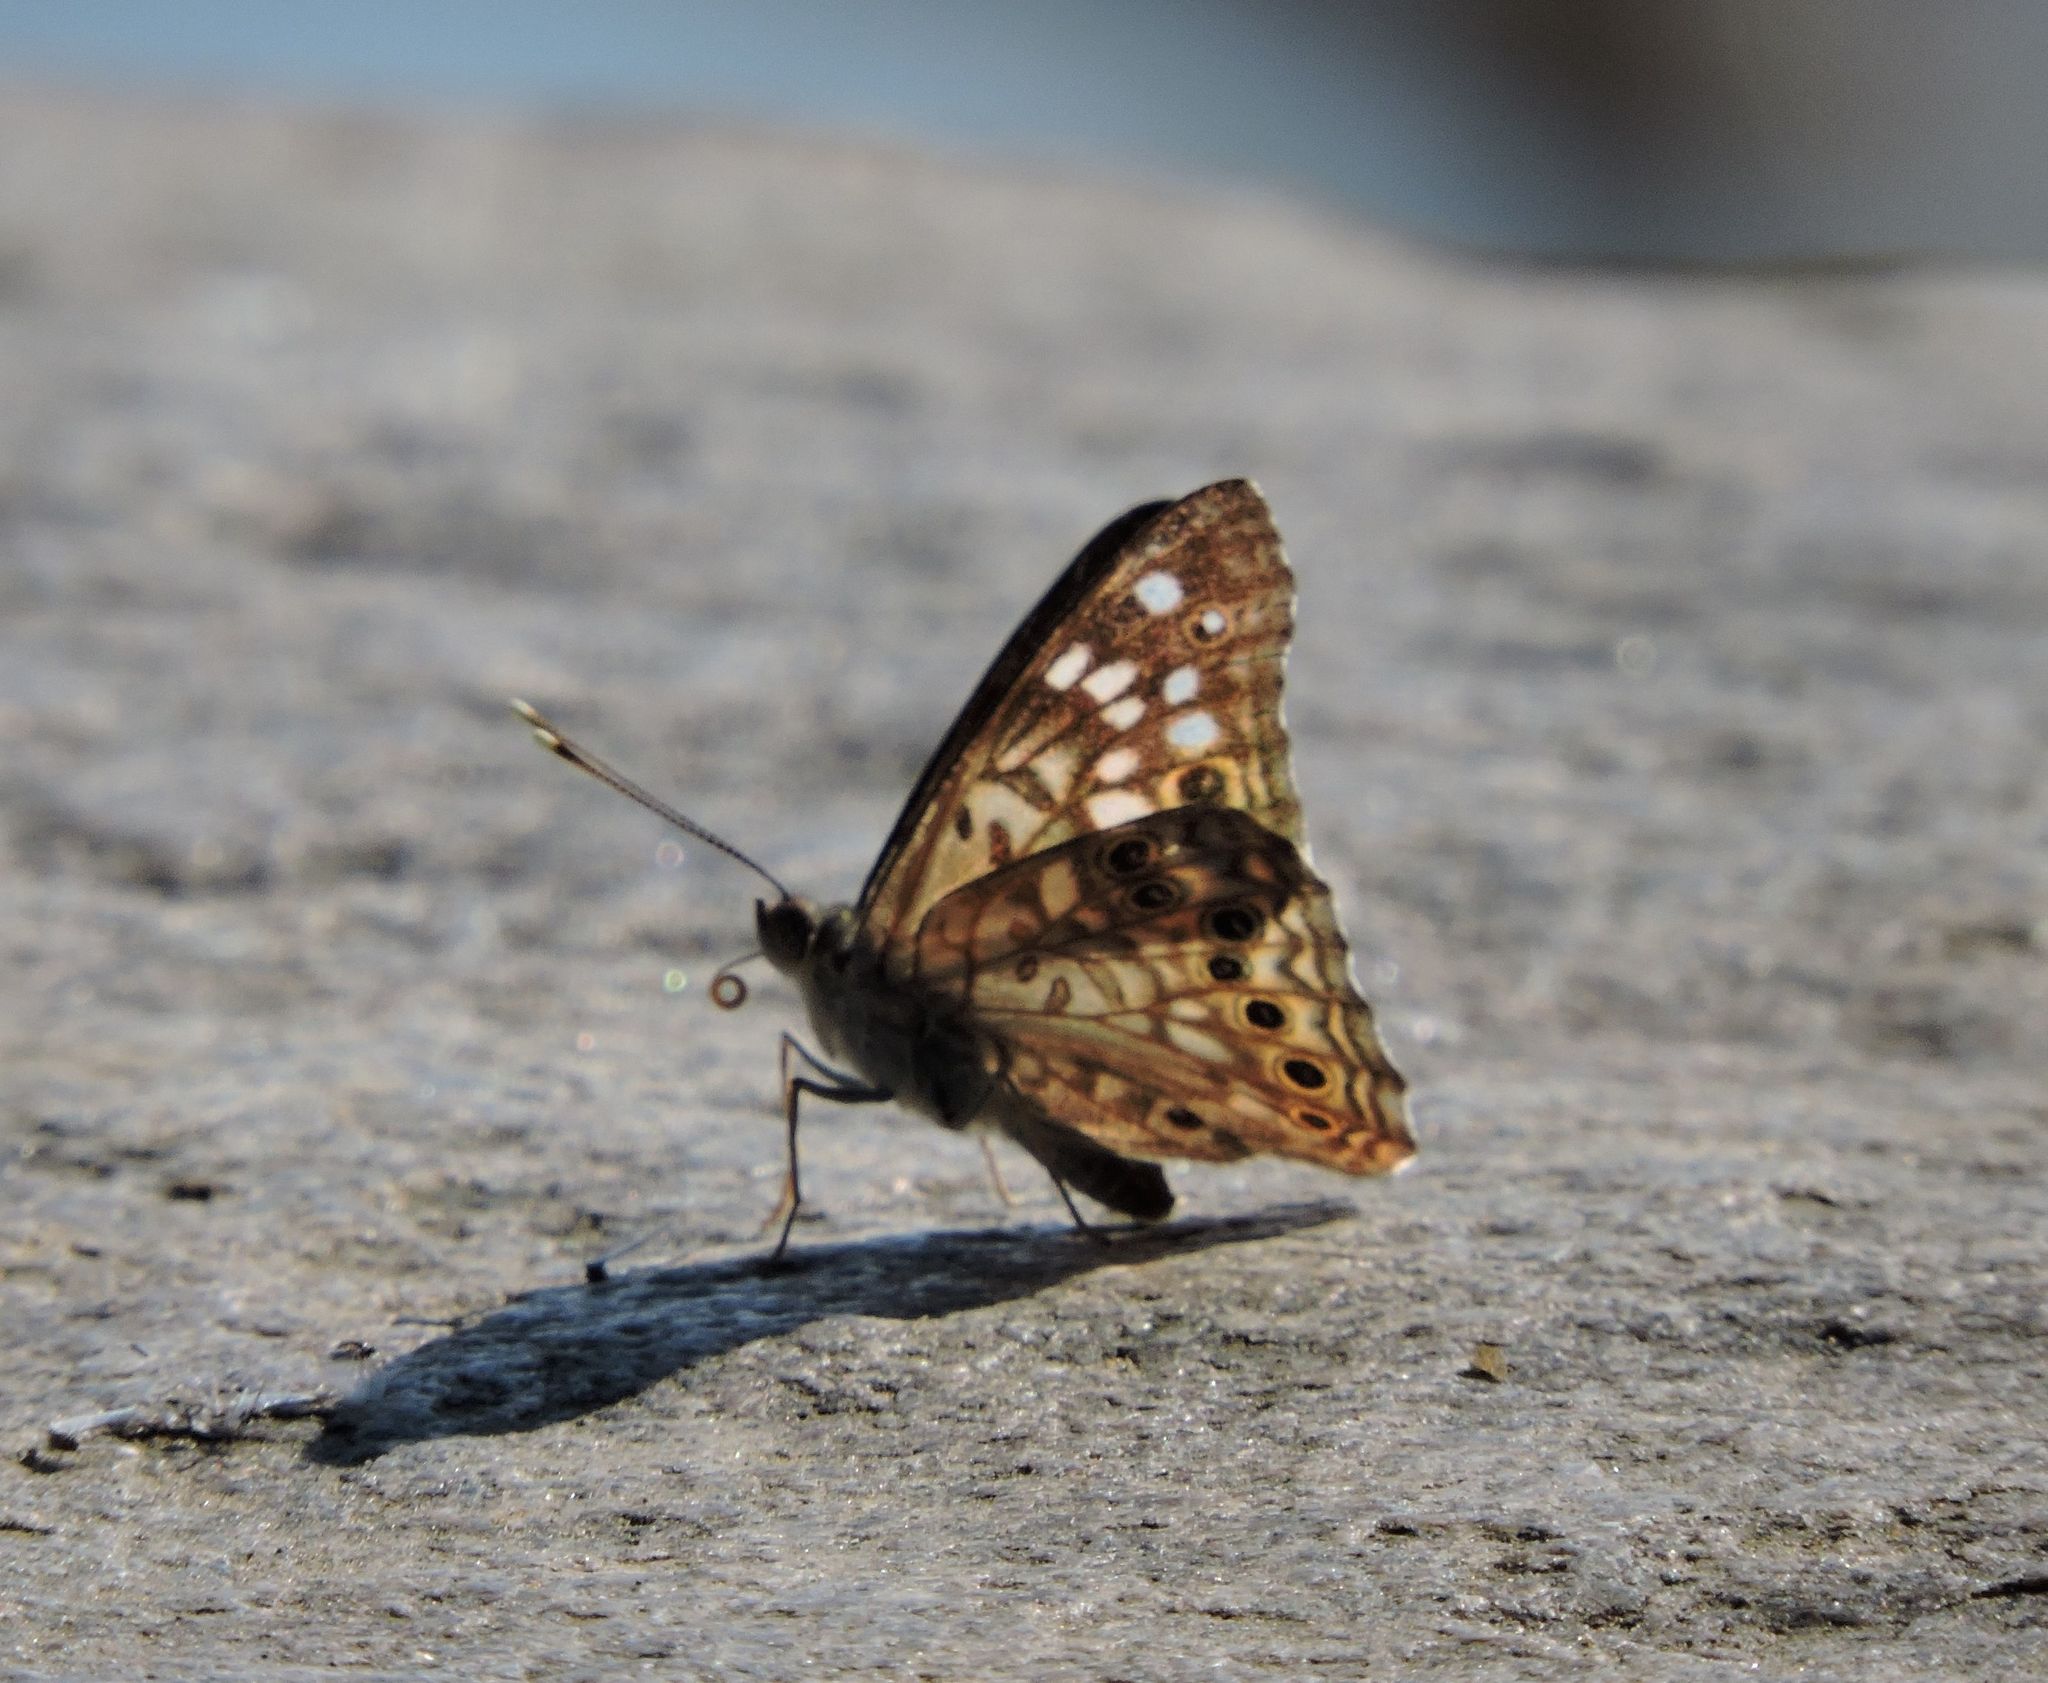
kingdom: Animalia
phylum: Arthropoda
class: Insecta
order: Lepidoptera
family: Nymphalidae
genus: Asterocampa
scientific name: Asterocampa celtis
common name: Hackberry emperor
